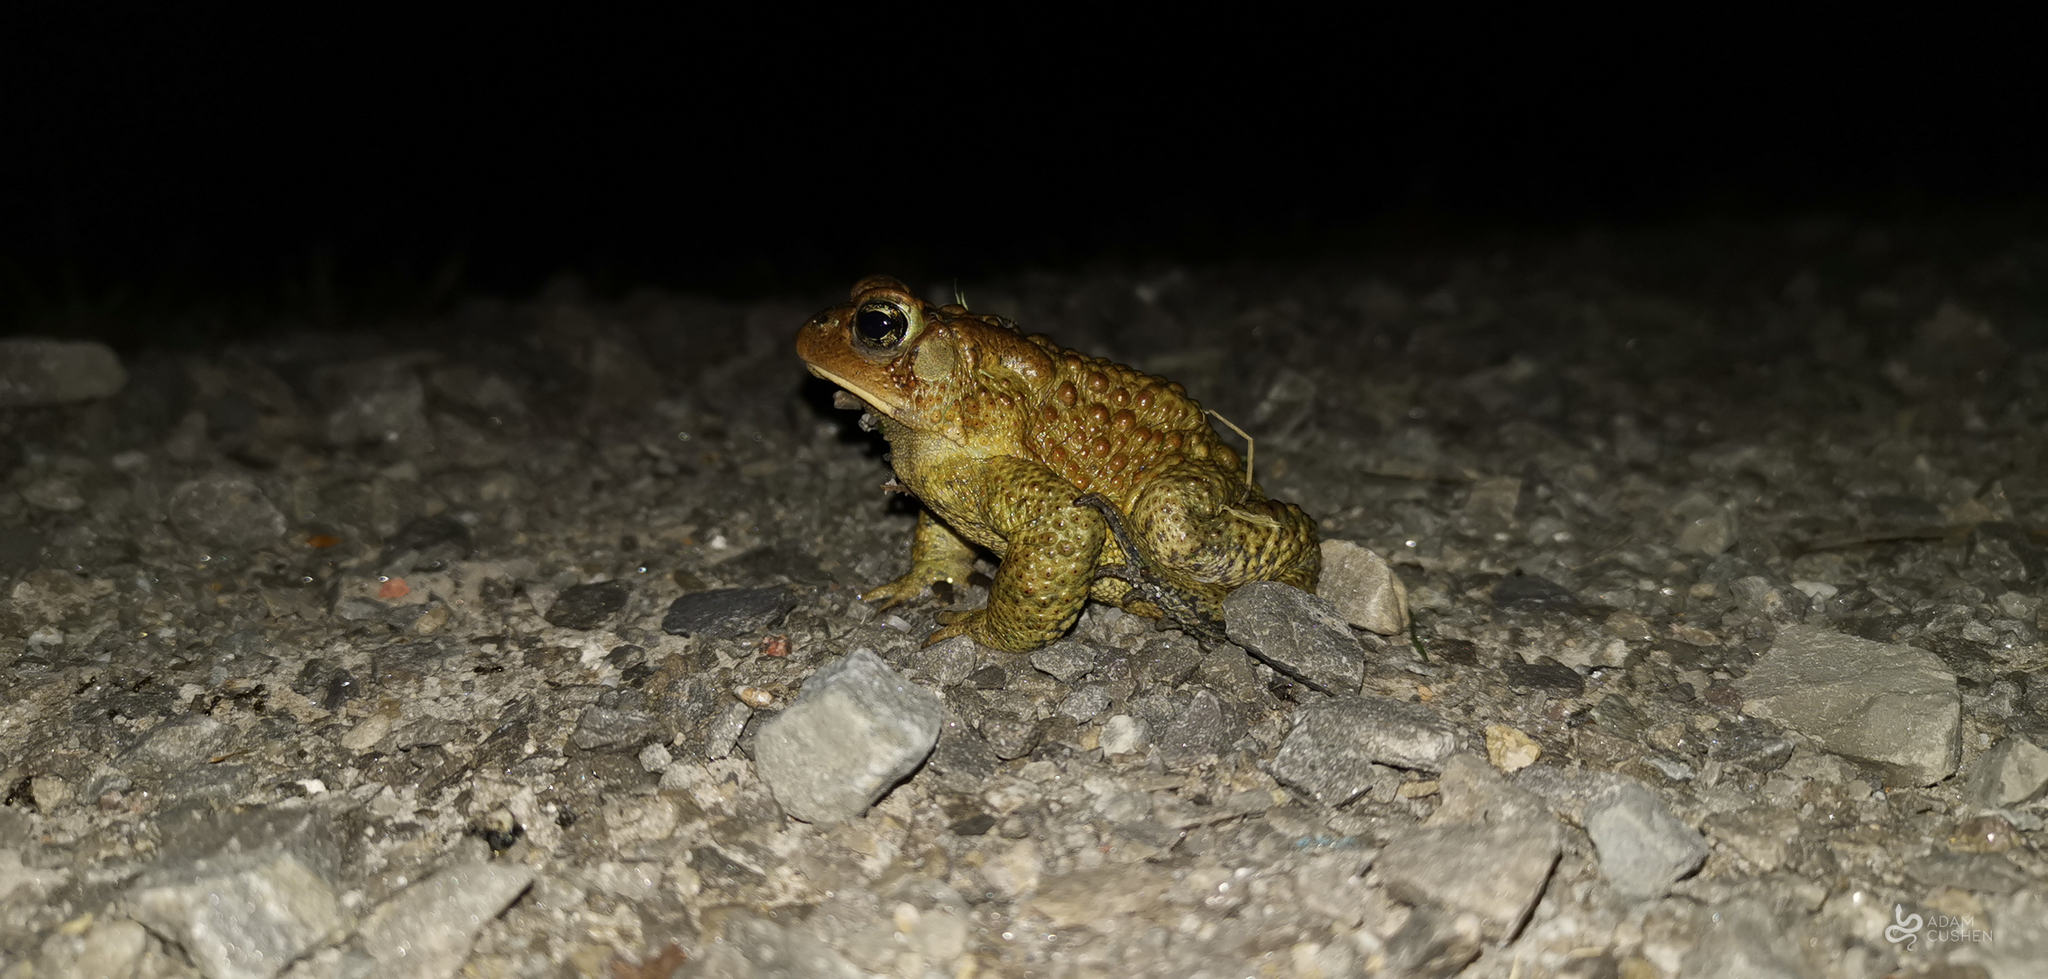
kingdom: Animalia
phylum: Chordata
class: Amphibia
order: Anura
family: Bufonidae
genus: Anaxyrus
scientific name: Anaxyrus americanus
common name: American toad
